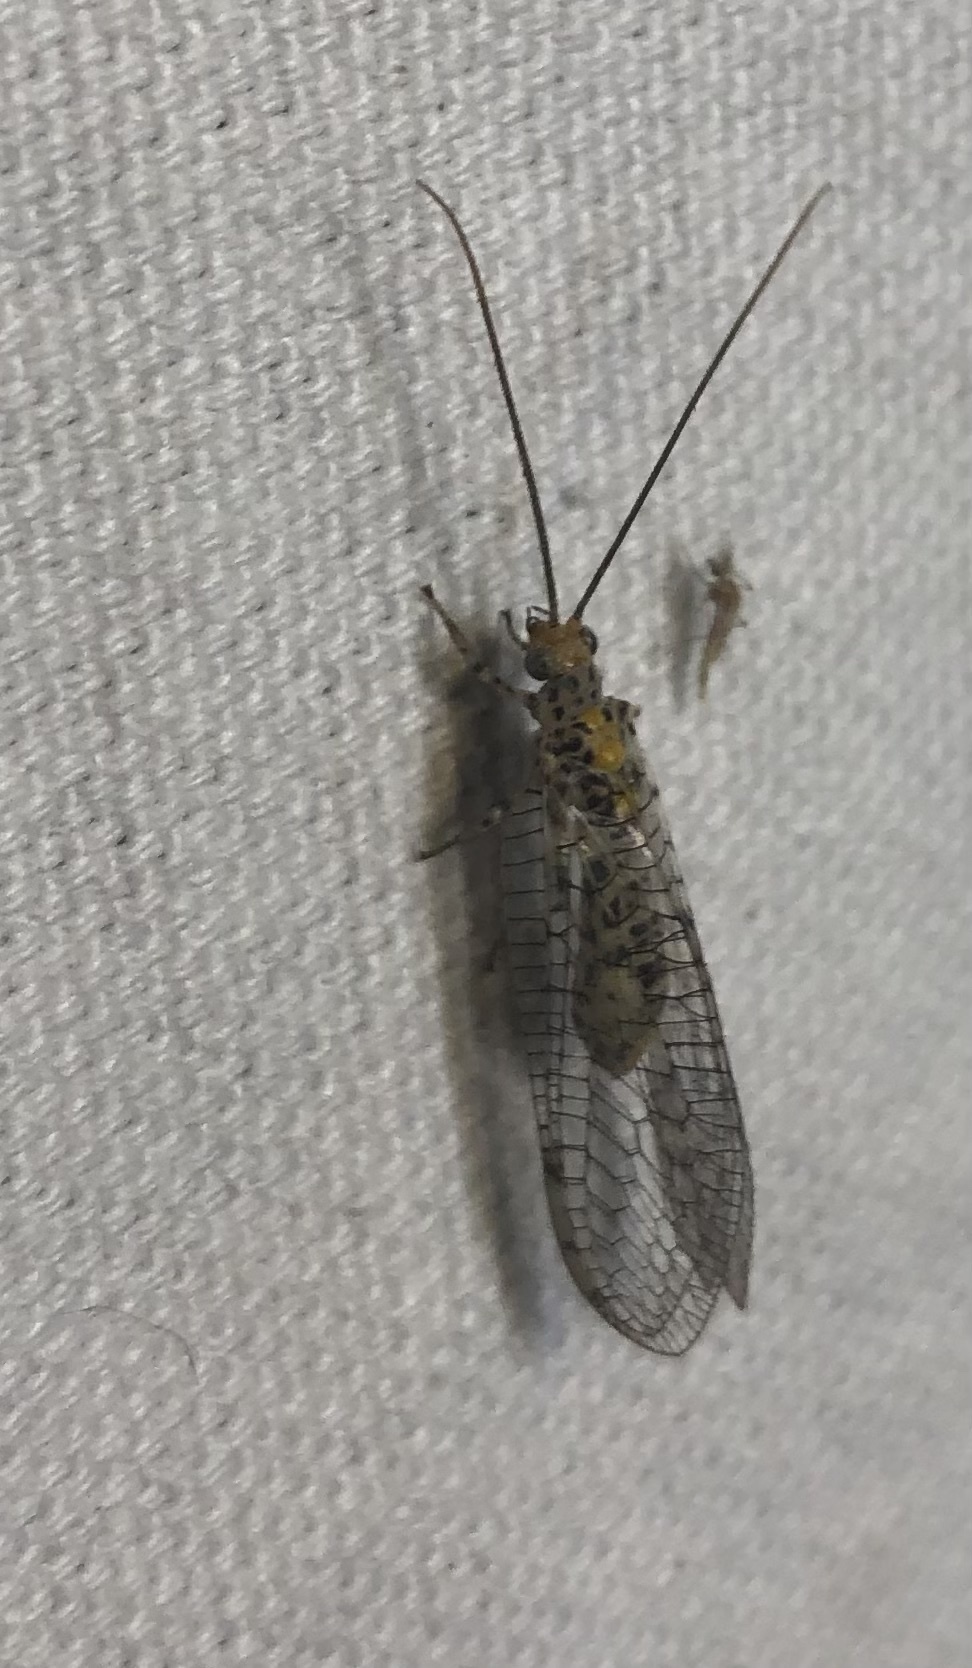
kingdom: Animalia
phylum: Arthropoda
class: Insecta
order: Neuroptera
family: Chrysopidae
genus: Abachrysa
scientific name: Abachrysa eureka
